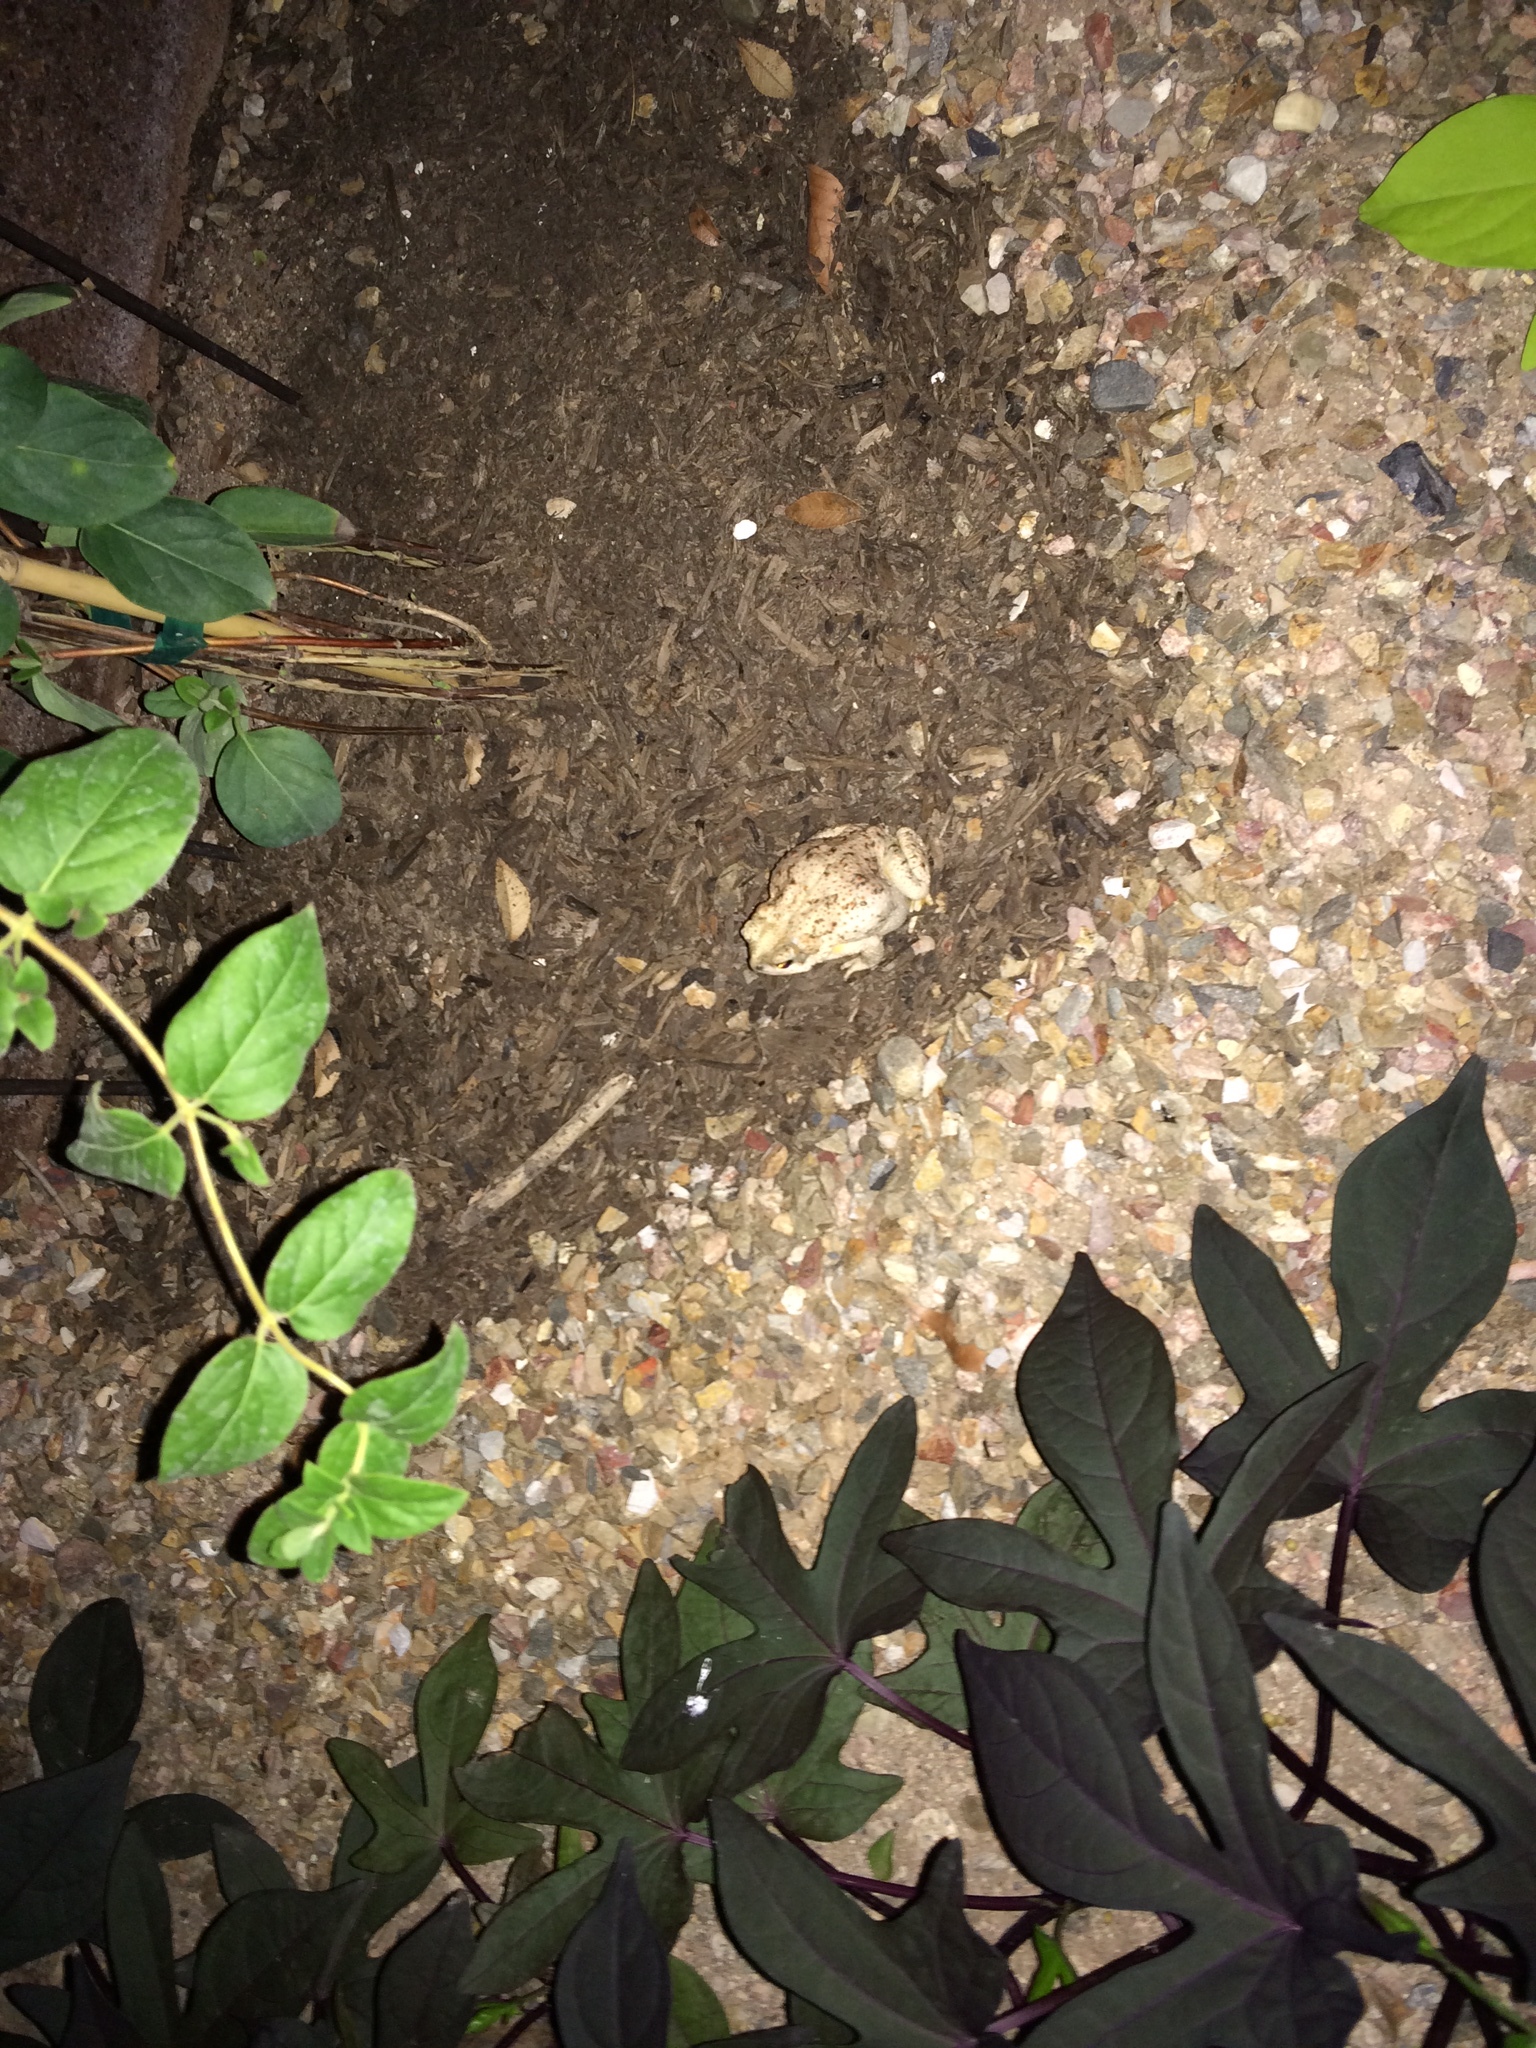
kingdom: Animalia
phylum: Chordata
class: Amphibia
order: Anura
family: Bufonidae
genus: Anaxyrus
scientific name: Anaxyrus punctatus
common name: Red-spotted toad
